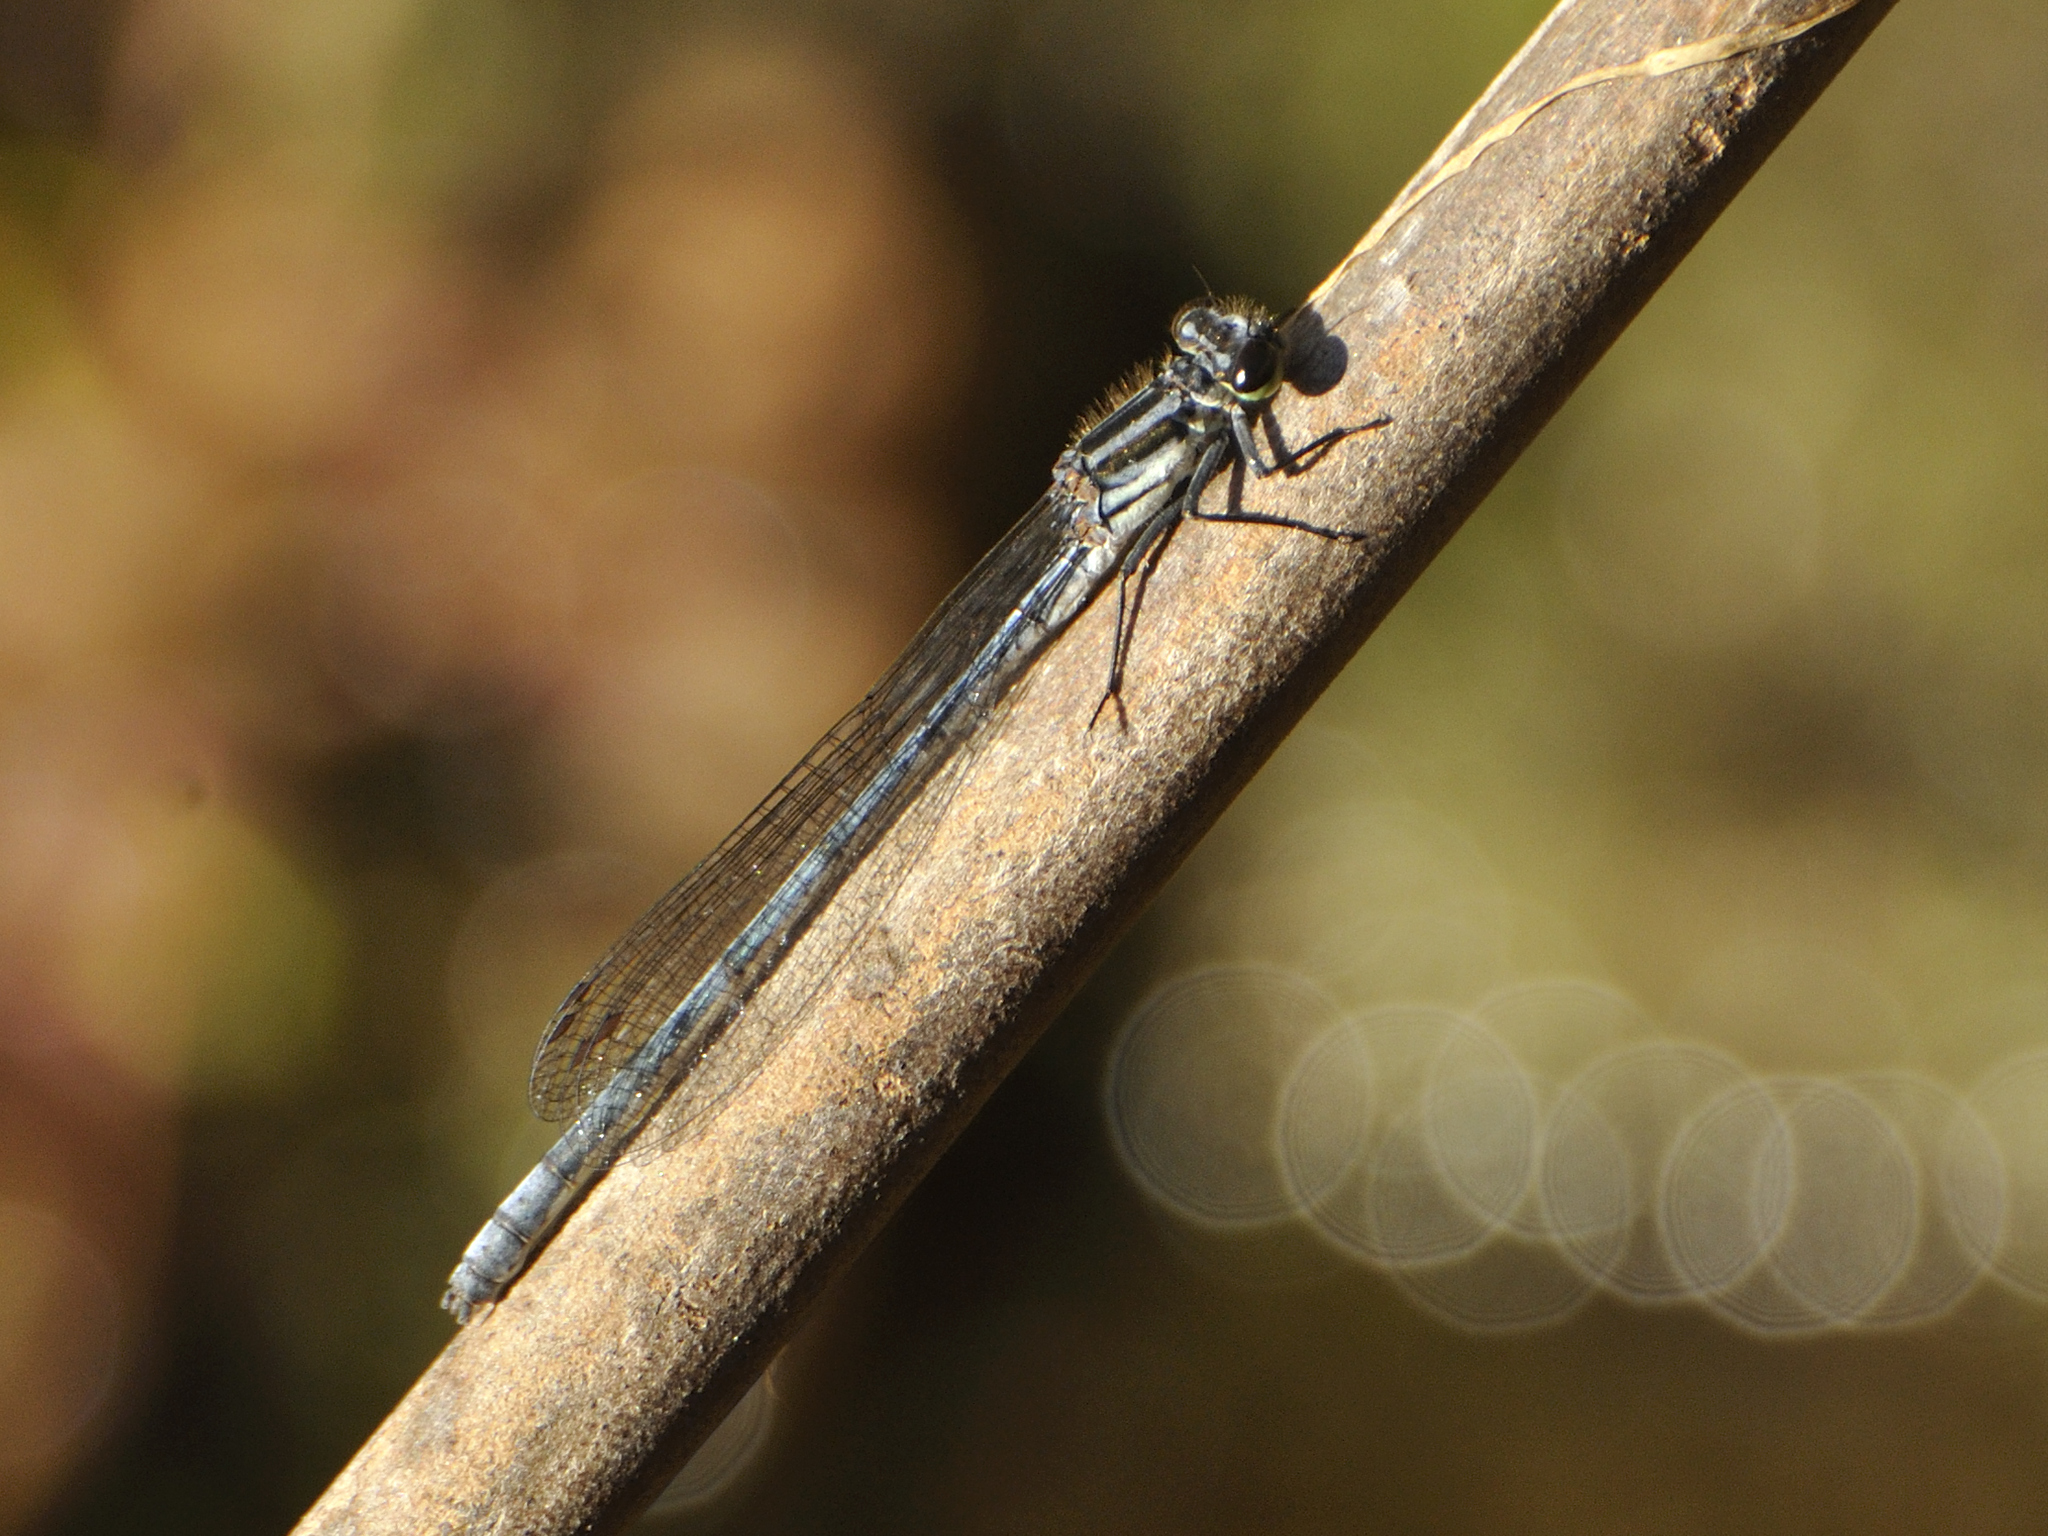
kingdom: Animalia
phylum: Arthropoda
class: Insecta
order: Odonata
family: Coenagrionidae
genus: Pseudagrion
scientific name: Pseudagrion furcigerum
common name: Palmiet sprite
